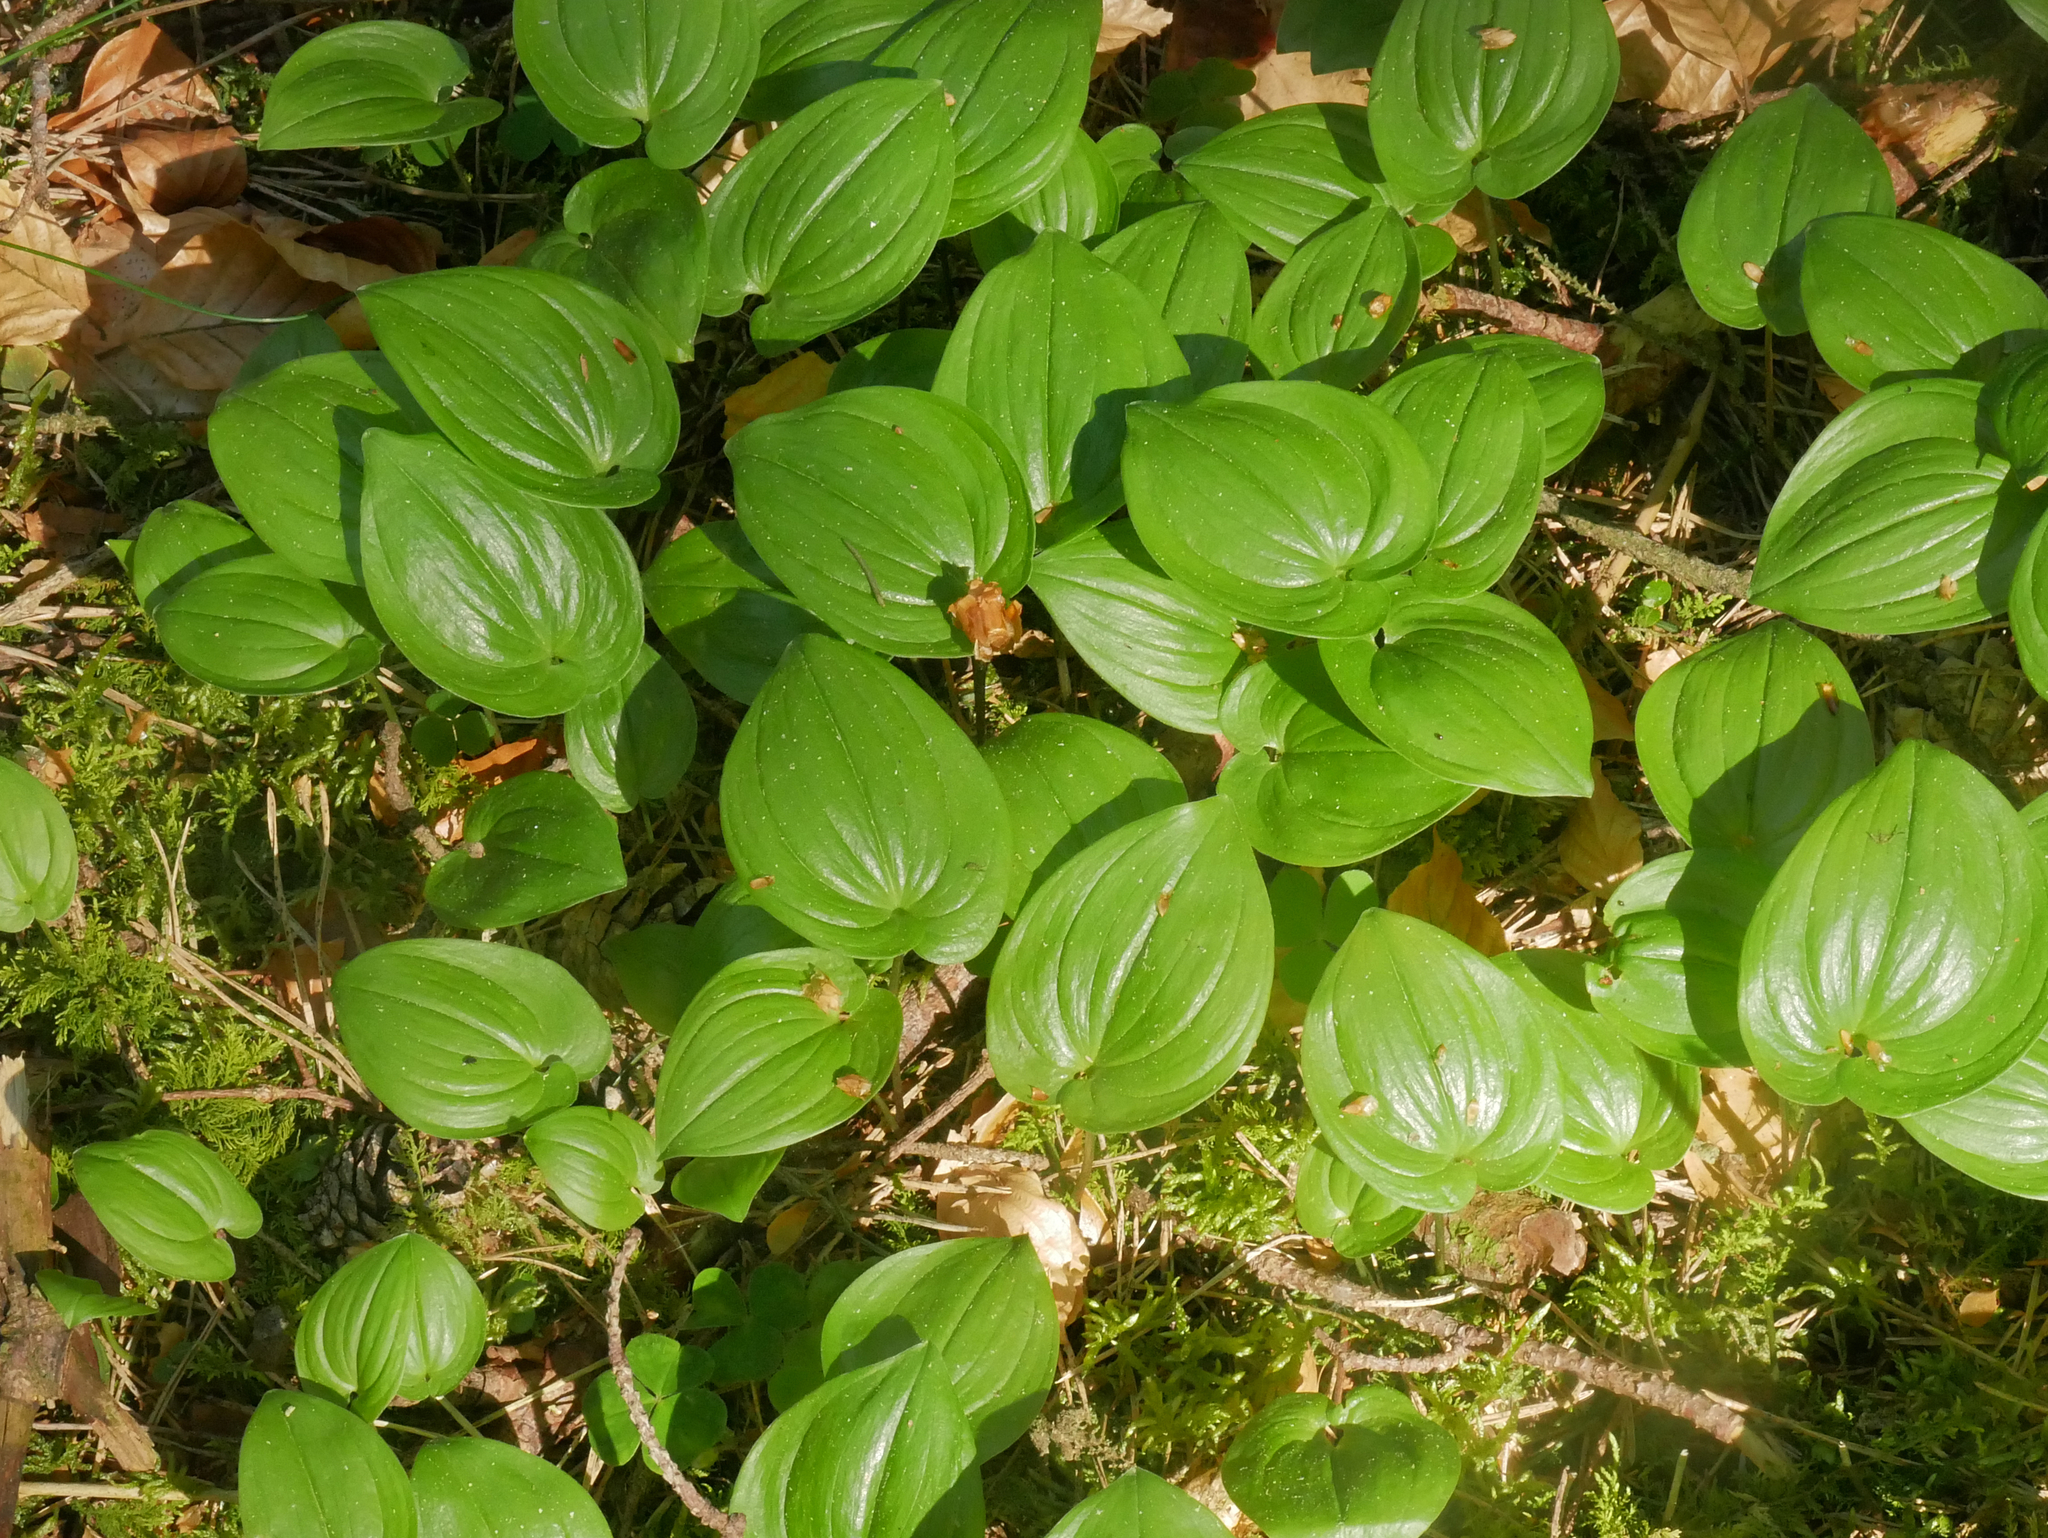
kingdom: Plantae
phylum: Tracheophyta
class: Liliopsida
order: Asparagales
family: Asparagaceae
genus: Maianthemum
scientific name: Maianthemum bifolium
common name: May lily
